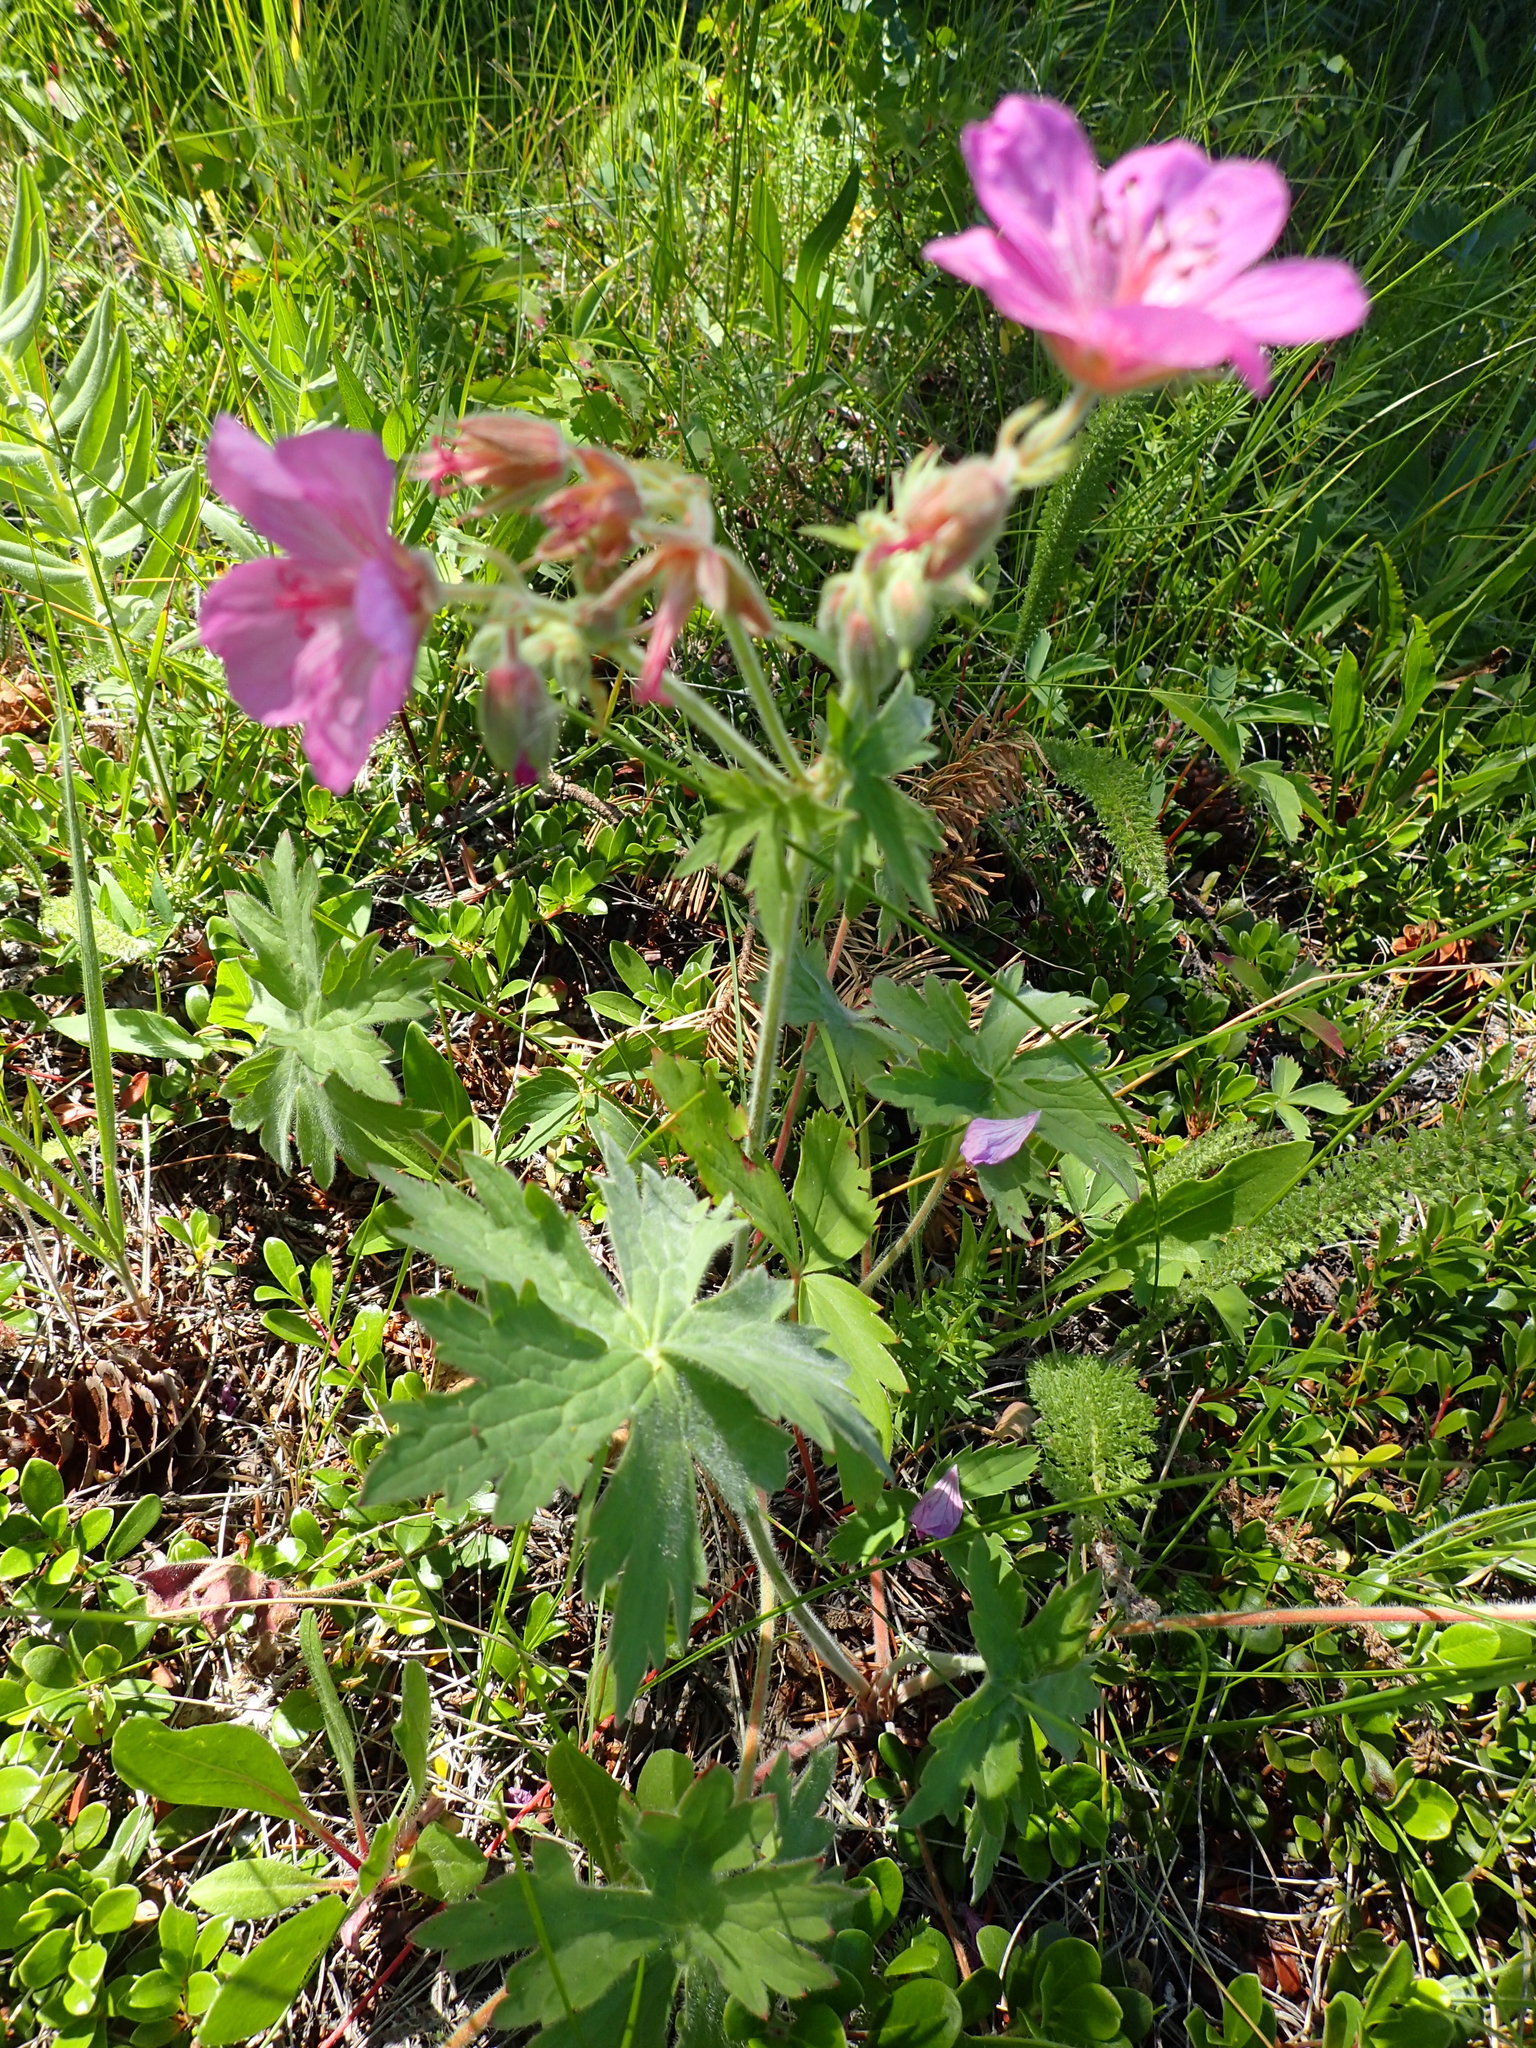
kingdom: Plantae
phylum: Tracheophyta
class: Magnoliopsida
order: Geraniales
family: Geraniaceae
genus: Geranium
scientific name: Geranium viscosissimum
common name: Purple geranium
